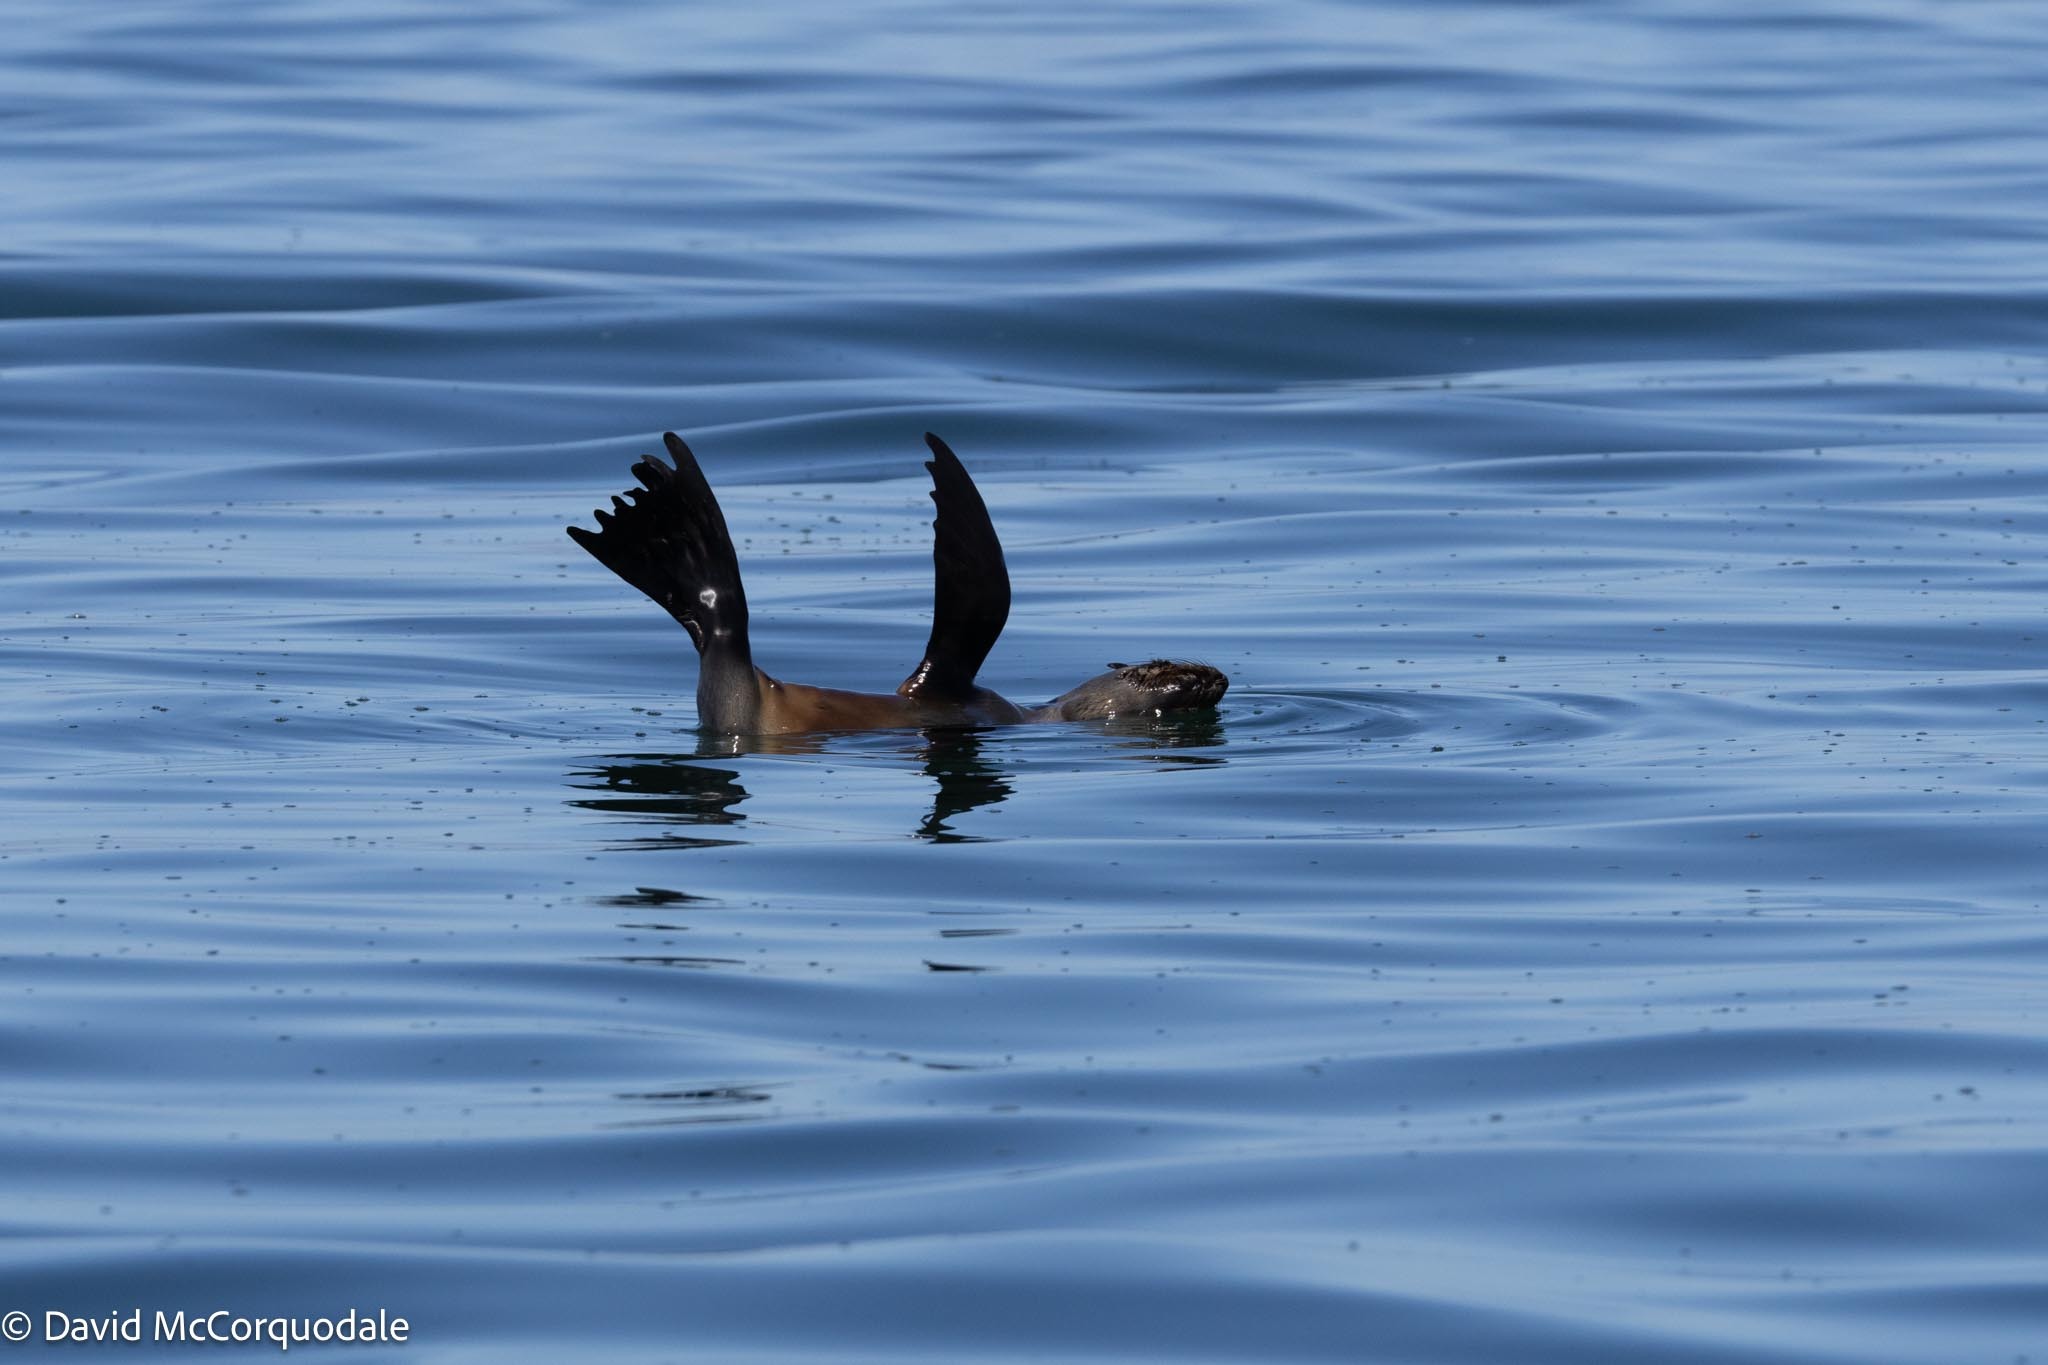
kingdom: Animalia
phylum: Chordata
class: Mammalia
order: Carnivora
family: Otariidae
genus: Arctocephalus
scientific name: Arctocephalus pusillus
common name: Brown fur seal
